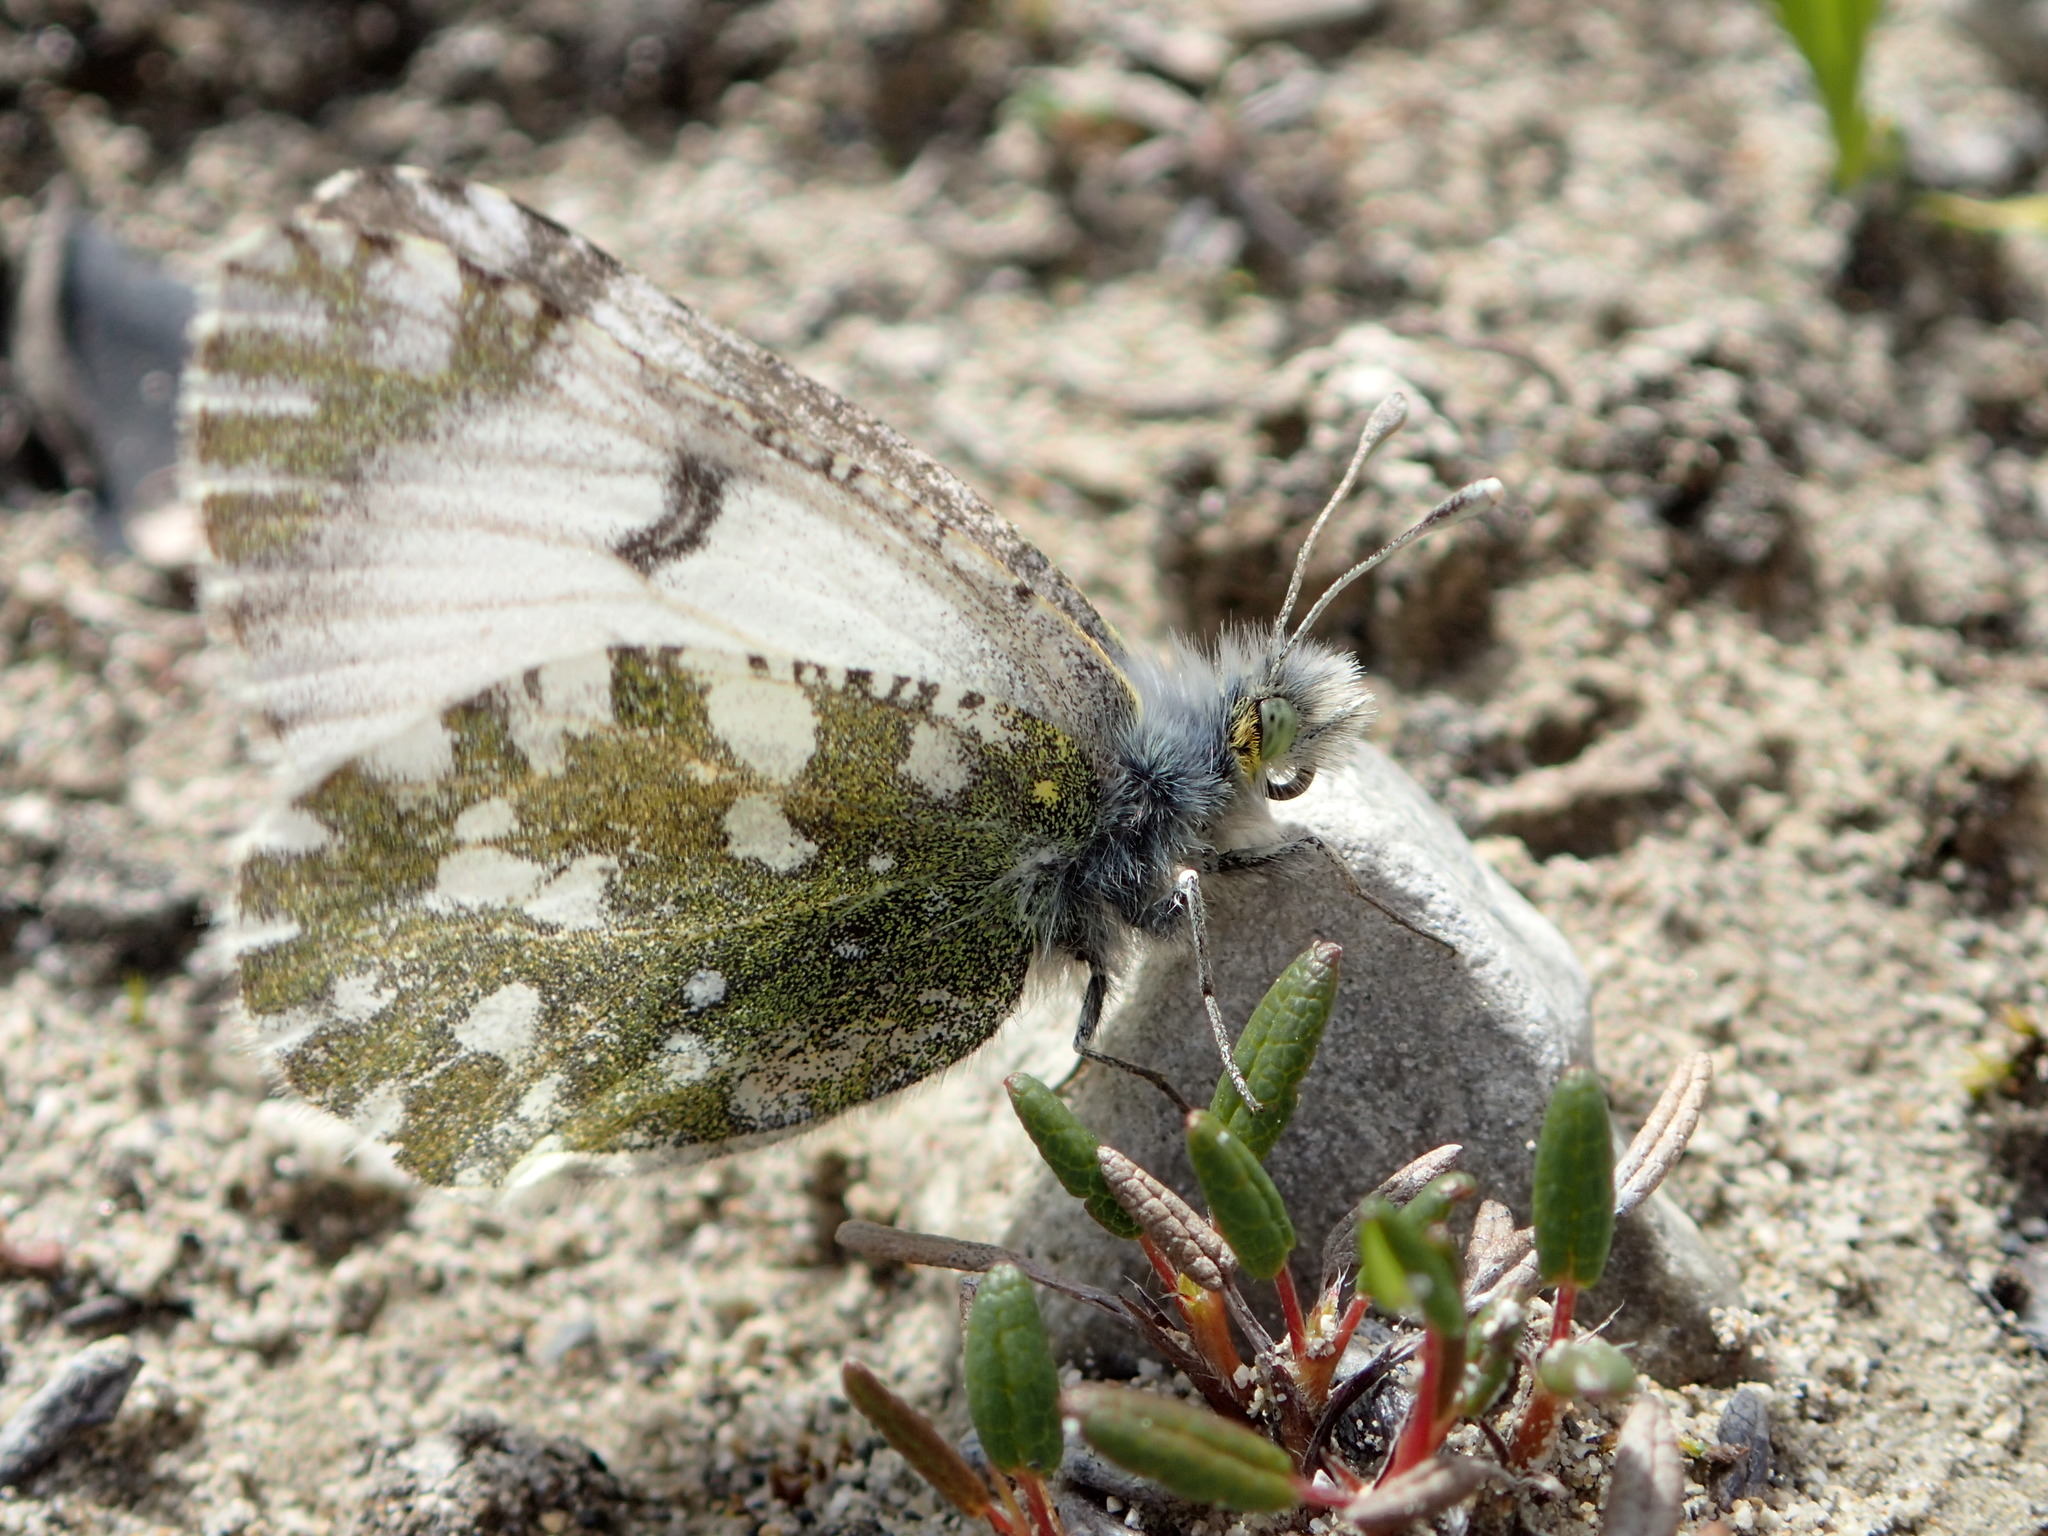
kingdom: Animalia
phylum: Arthropoda
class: Insecta
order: Lepidoptera
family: Pieridae
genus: Euchloe
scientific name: Euchloe naina
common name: Green marble
